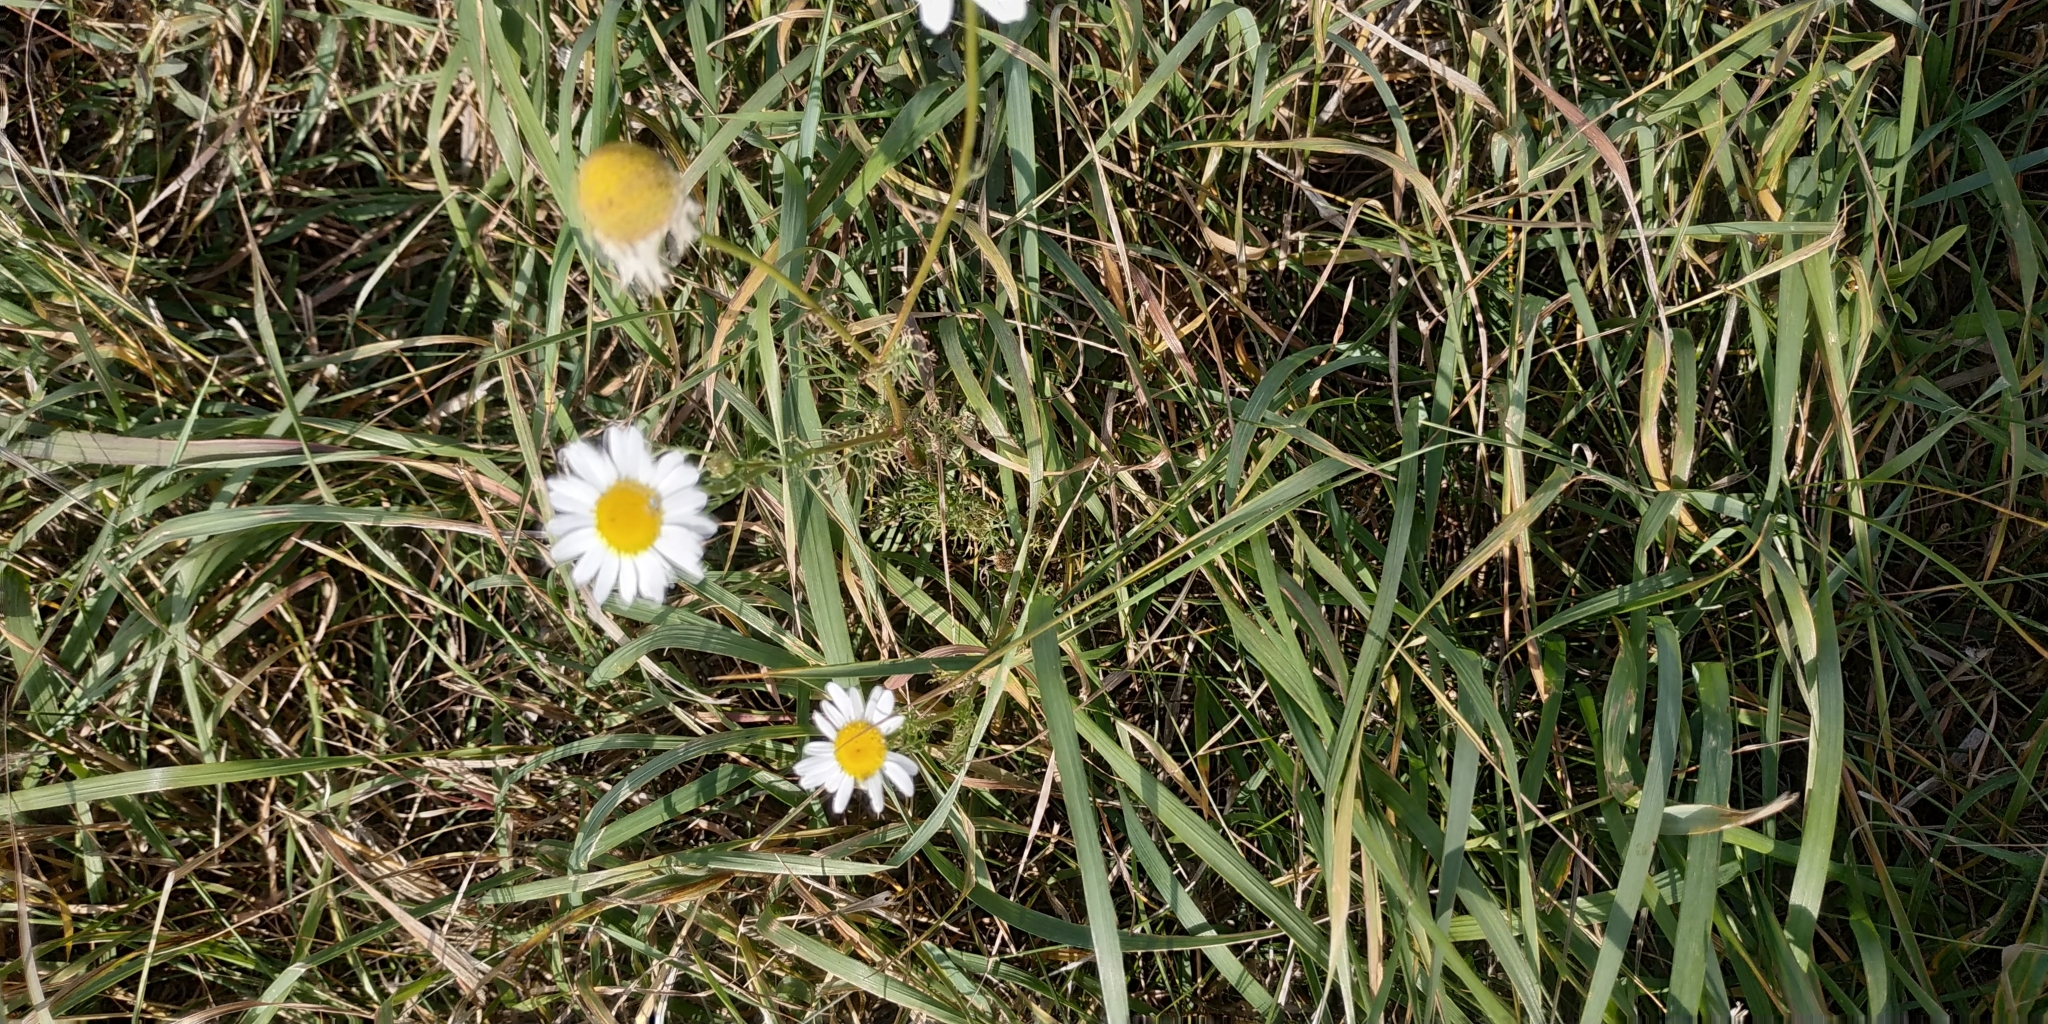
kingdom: Plantae
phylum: Tracheophyta
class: Magnoliopsida
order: Asterales
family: Asteraceae
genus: Tripleurospermum
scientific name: Tripleurospermum inodorum
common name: Scentless mayweed
